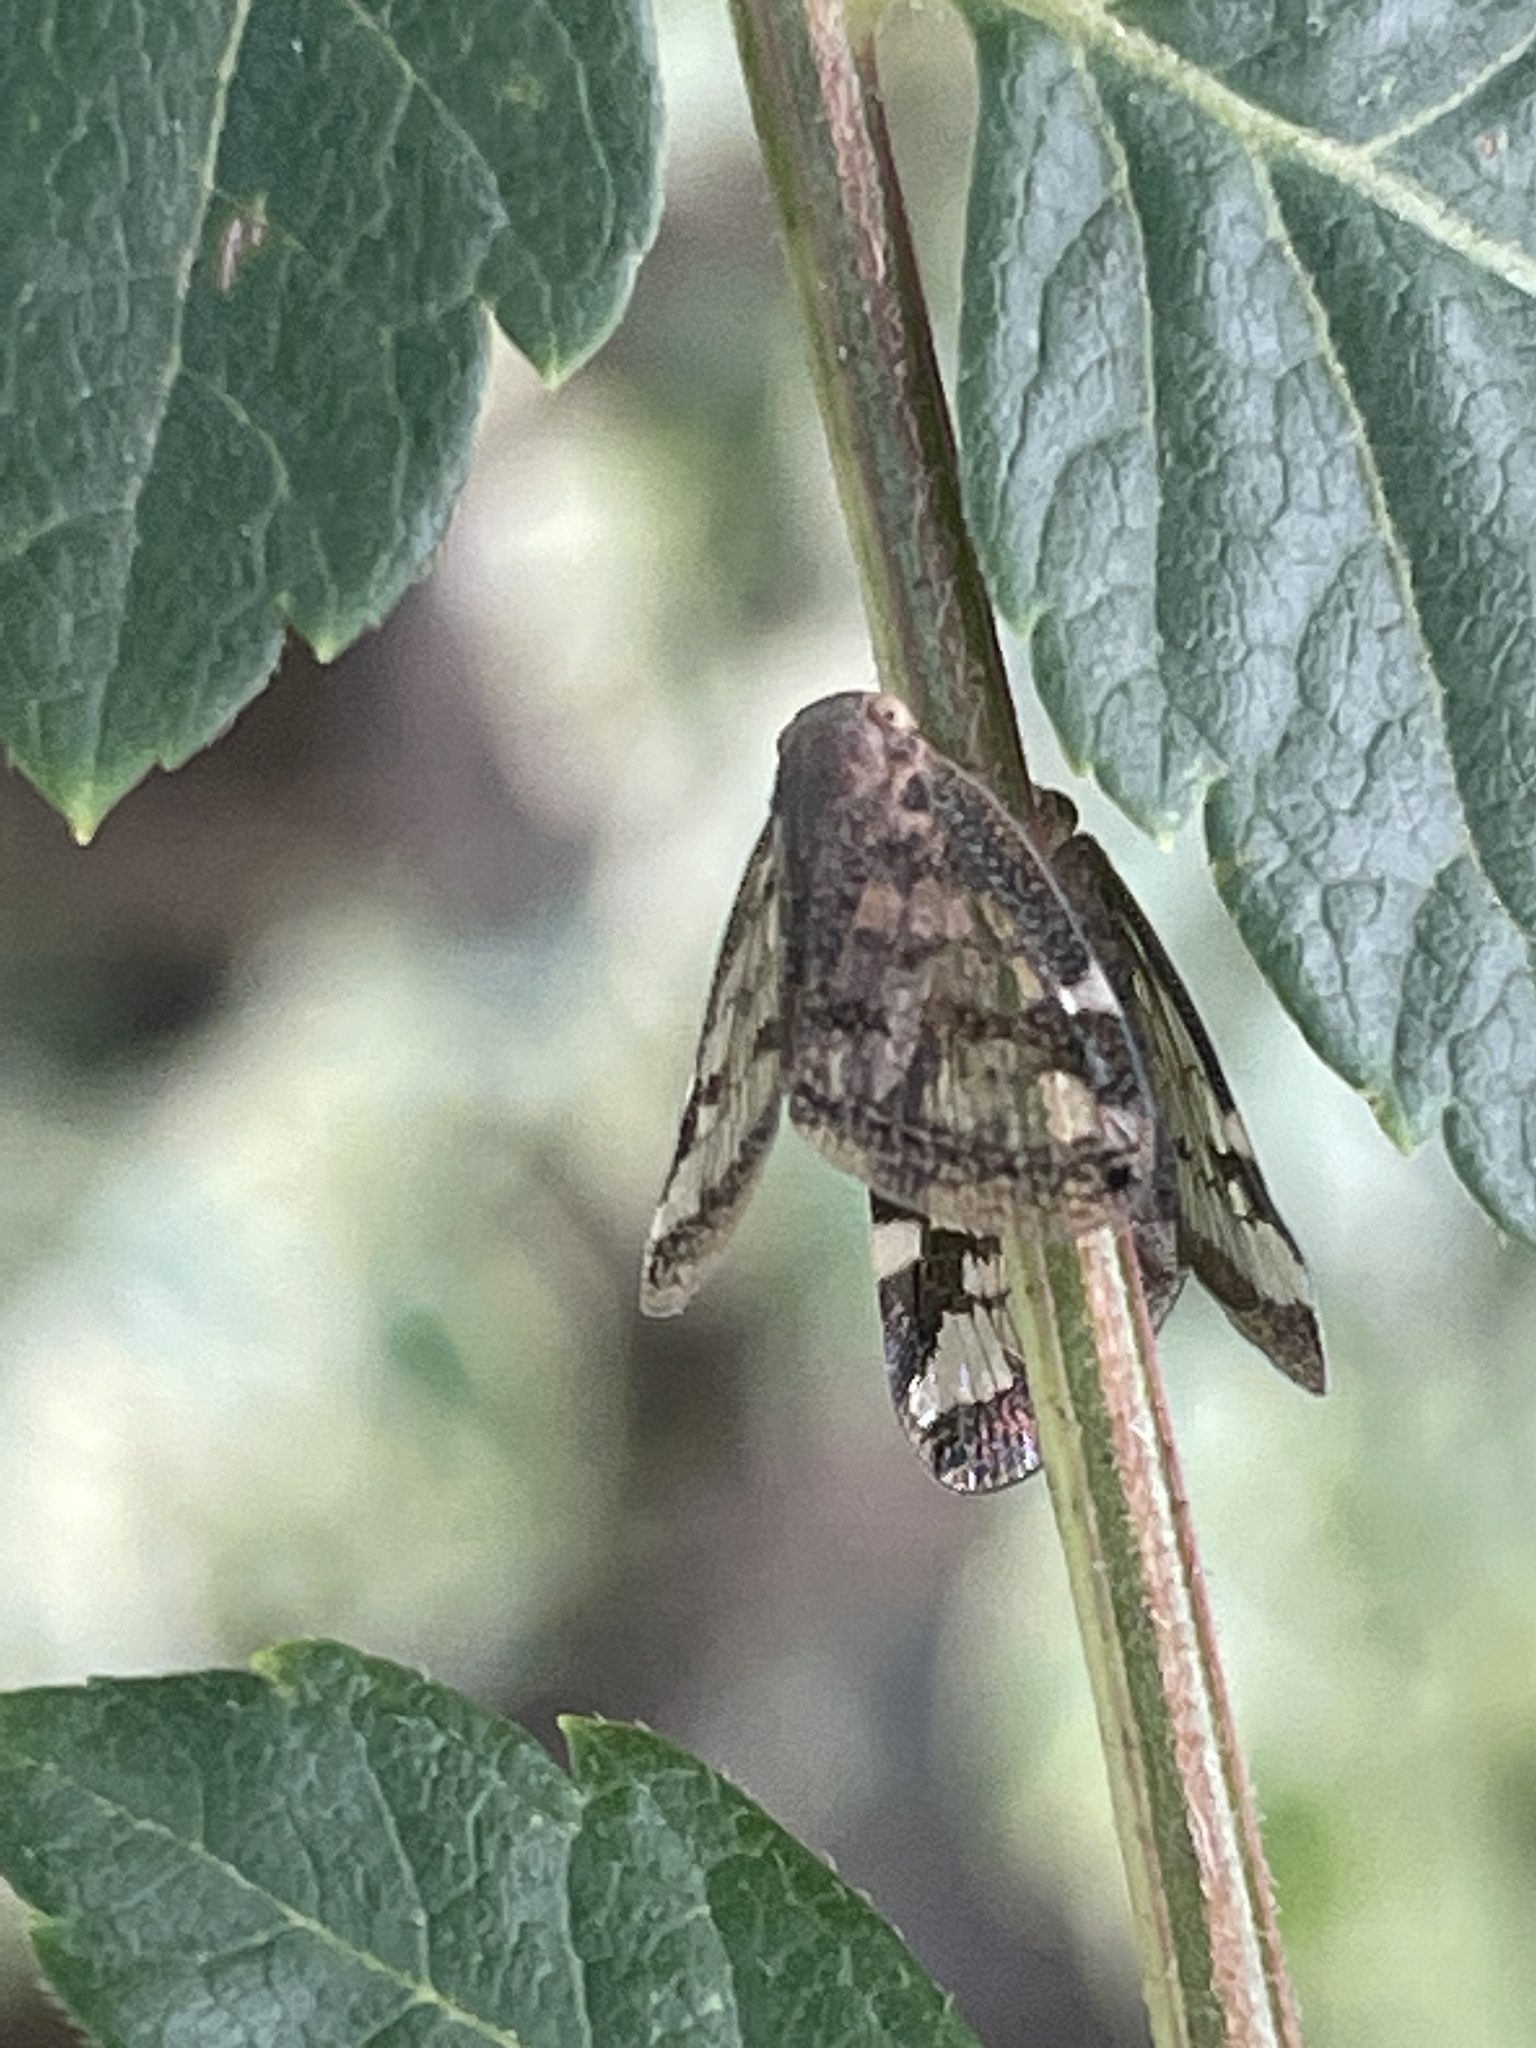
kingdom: Animalia
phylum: Arthropoda
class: Insecta
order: Hemiptera
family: Ricaniidae
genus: Scolypopa
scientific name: Scolypopa australis
